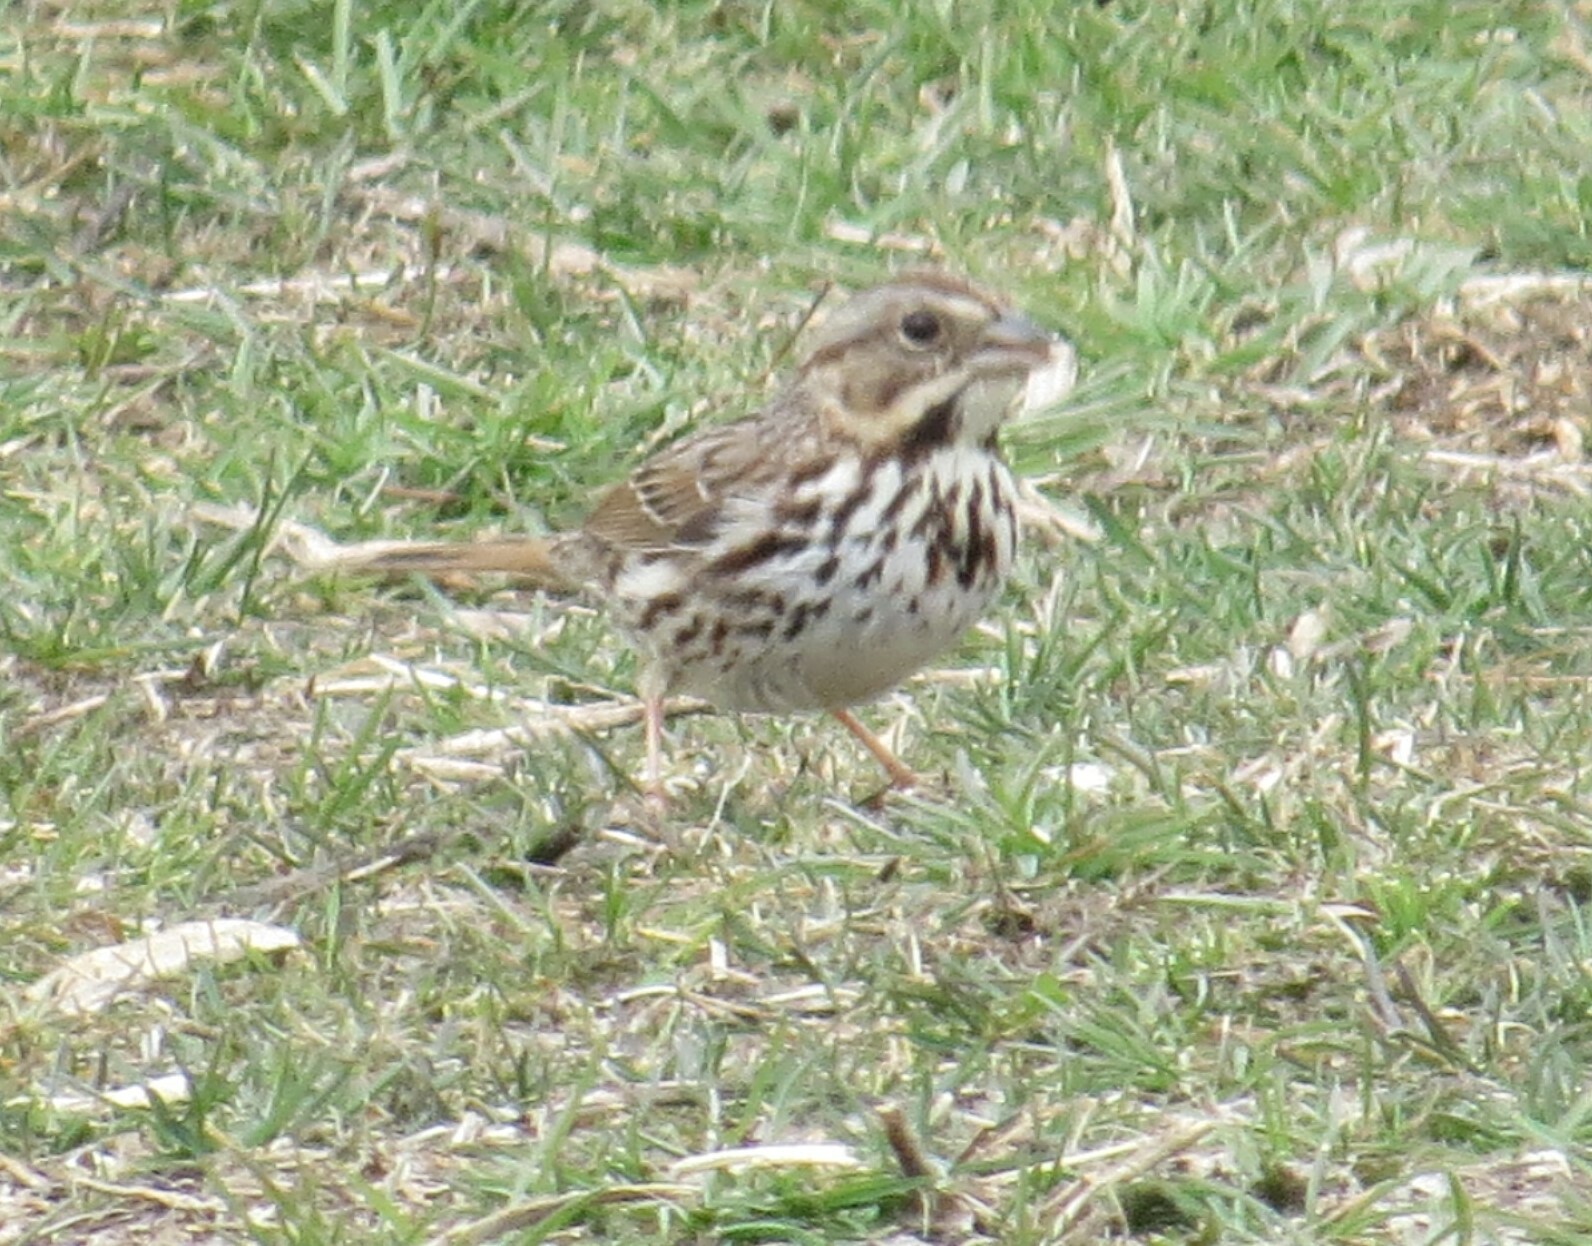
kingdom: Animalia
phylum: Chordata
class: Aves
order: Passeriformes
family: Passerellidae
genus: Melospiza
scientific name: Melospiza melodia
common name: Song sparrow
